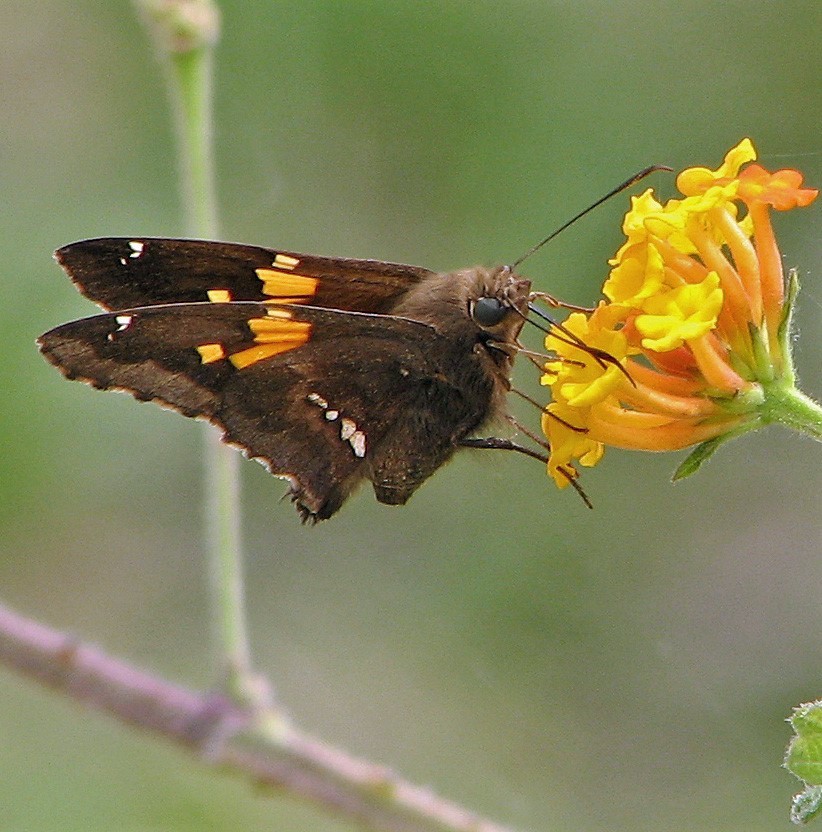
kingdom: Animalia
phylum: Arthropoda
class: Insecta
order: Lepidoptera
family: Hesperiidae
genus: Epargyreus
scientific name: Epargyreus tmolis
